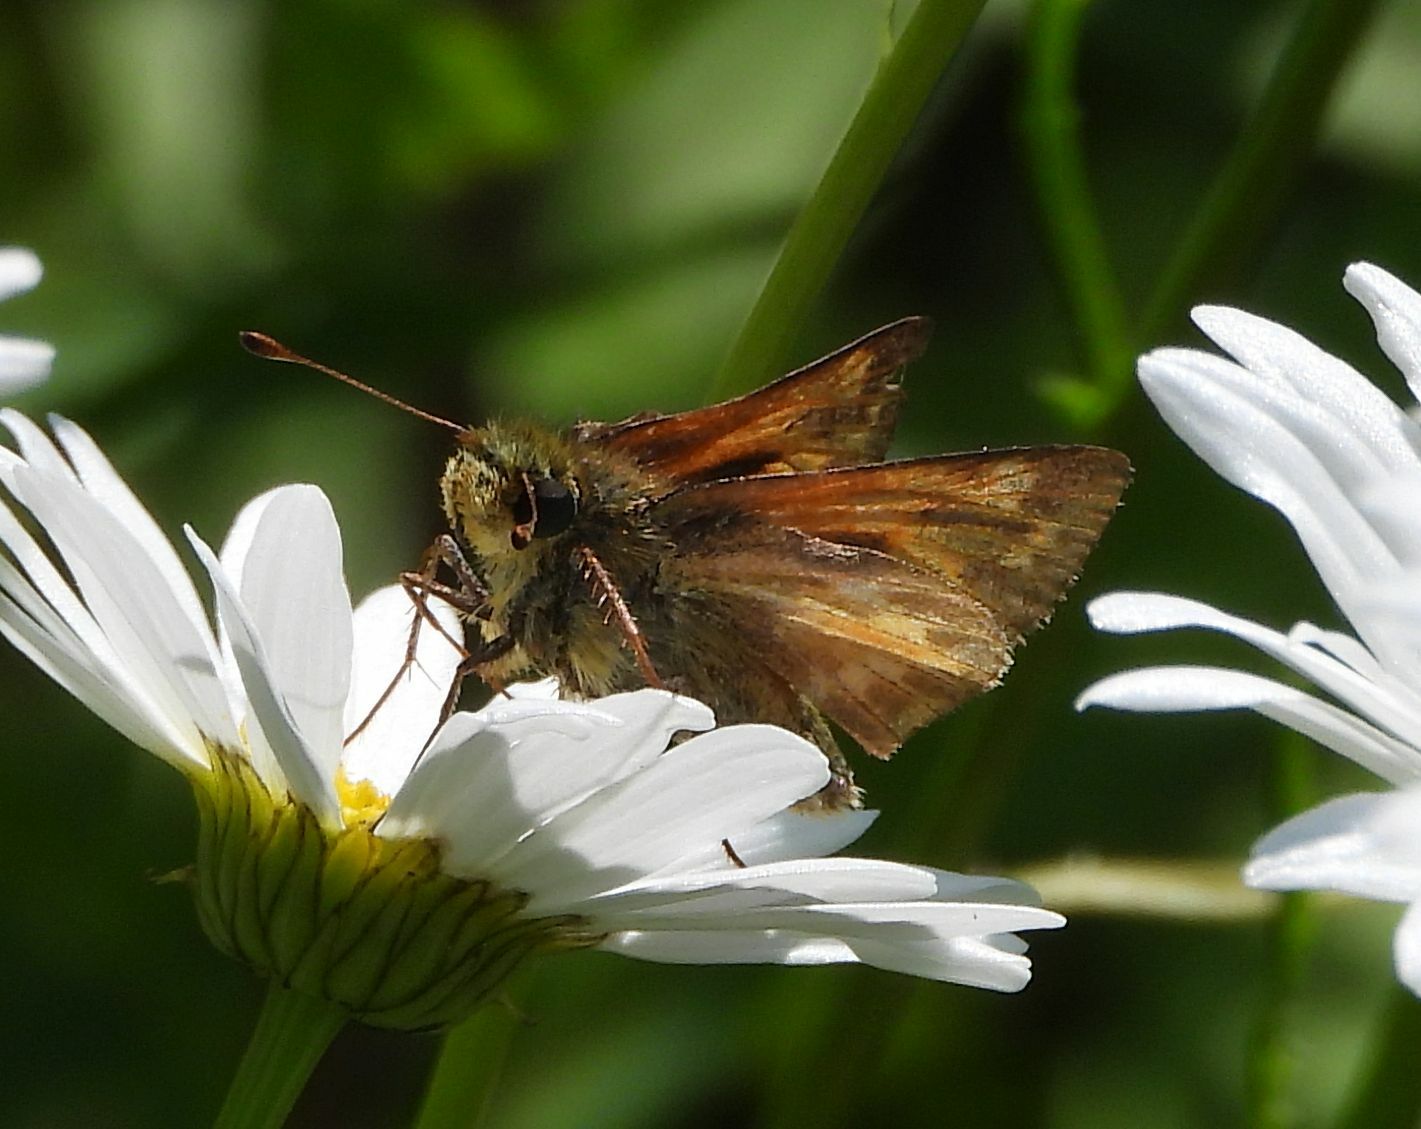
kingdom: Animalia
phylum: Arthropoda
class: Insecta
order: Lepidoptera
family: Hesperiidae
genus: Hesperia
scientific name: Hesperia sassacus
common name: Indian skipper
